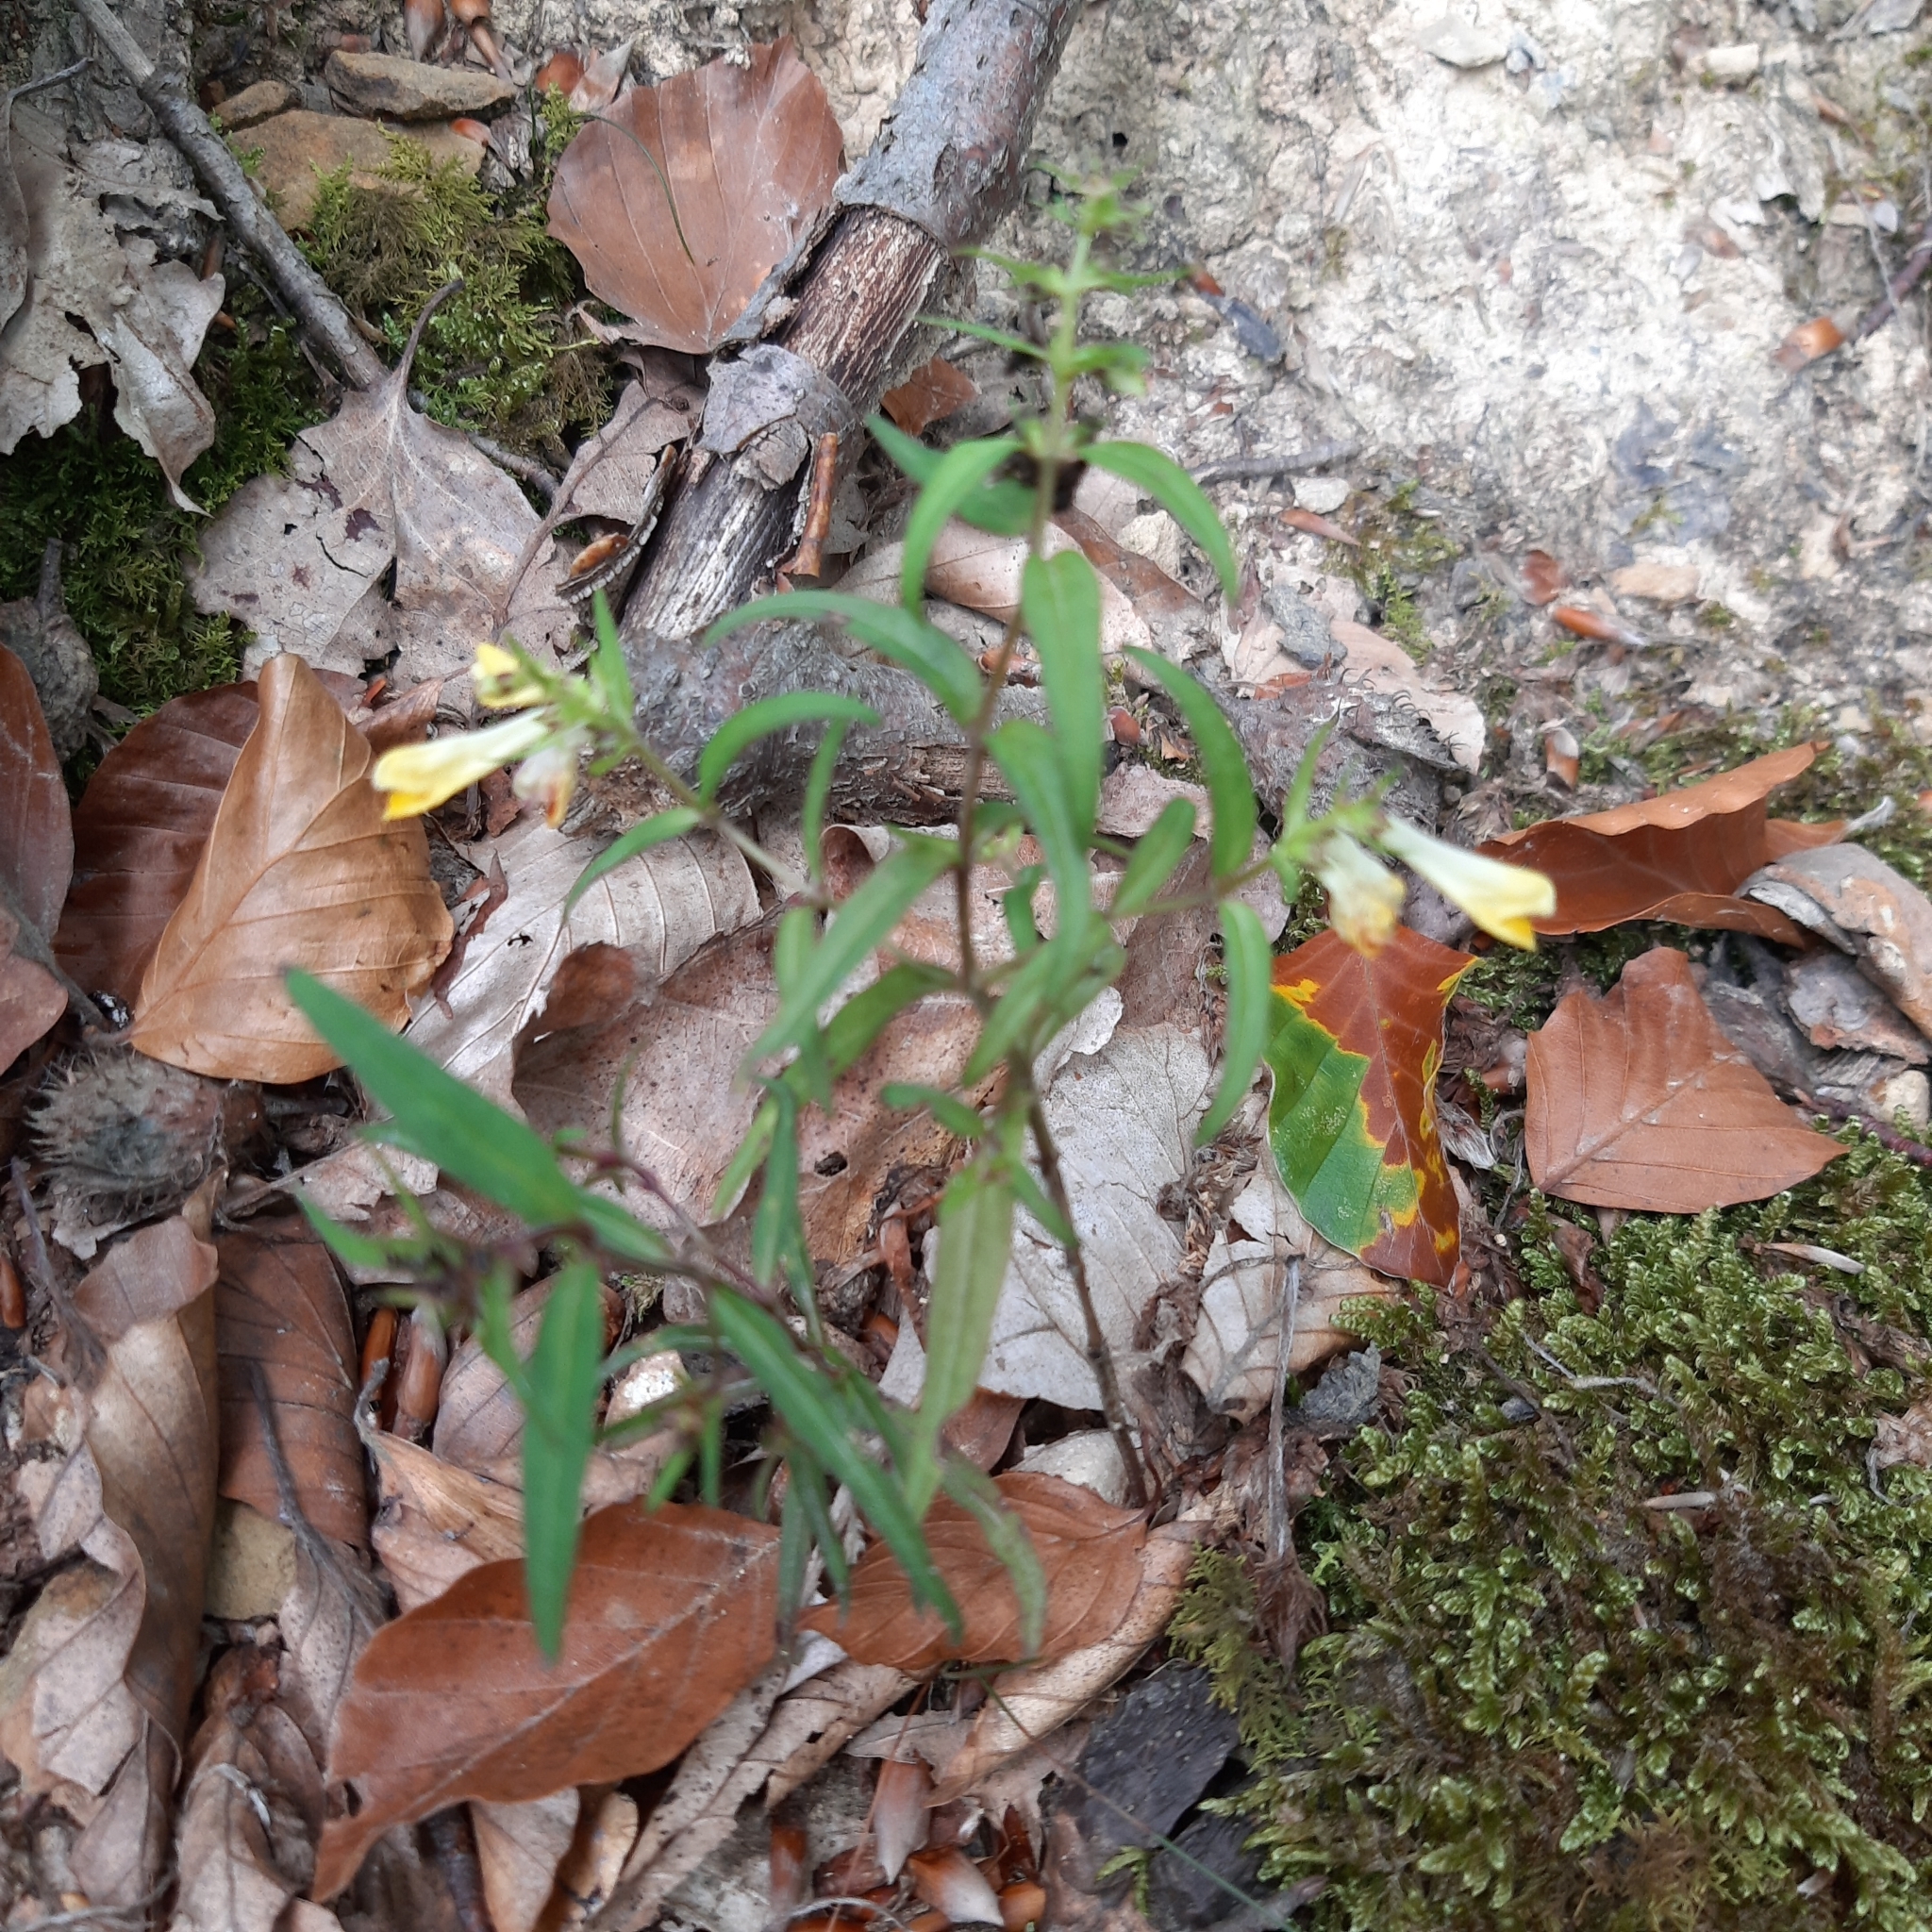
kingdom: Plantae
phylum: Tracheophyta
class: Magnoliopsida
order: Lamiales
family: Orobanchaceae
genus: Melampyrum
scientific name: Melampyrum pratense
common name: Common cow-wheat
